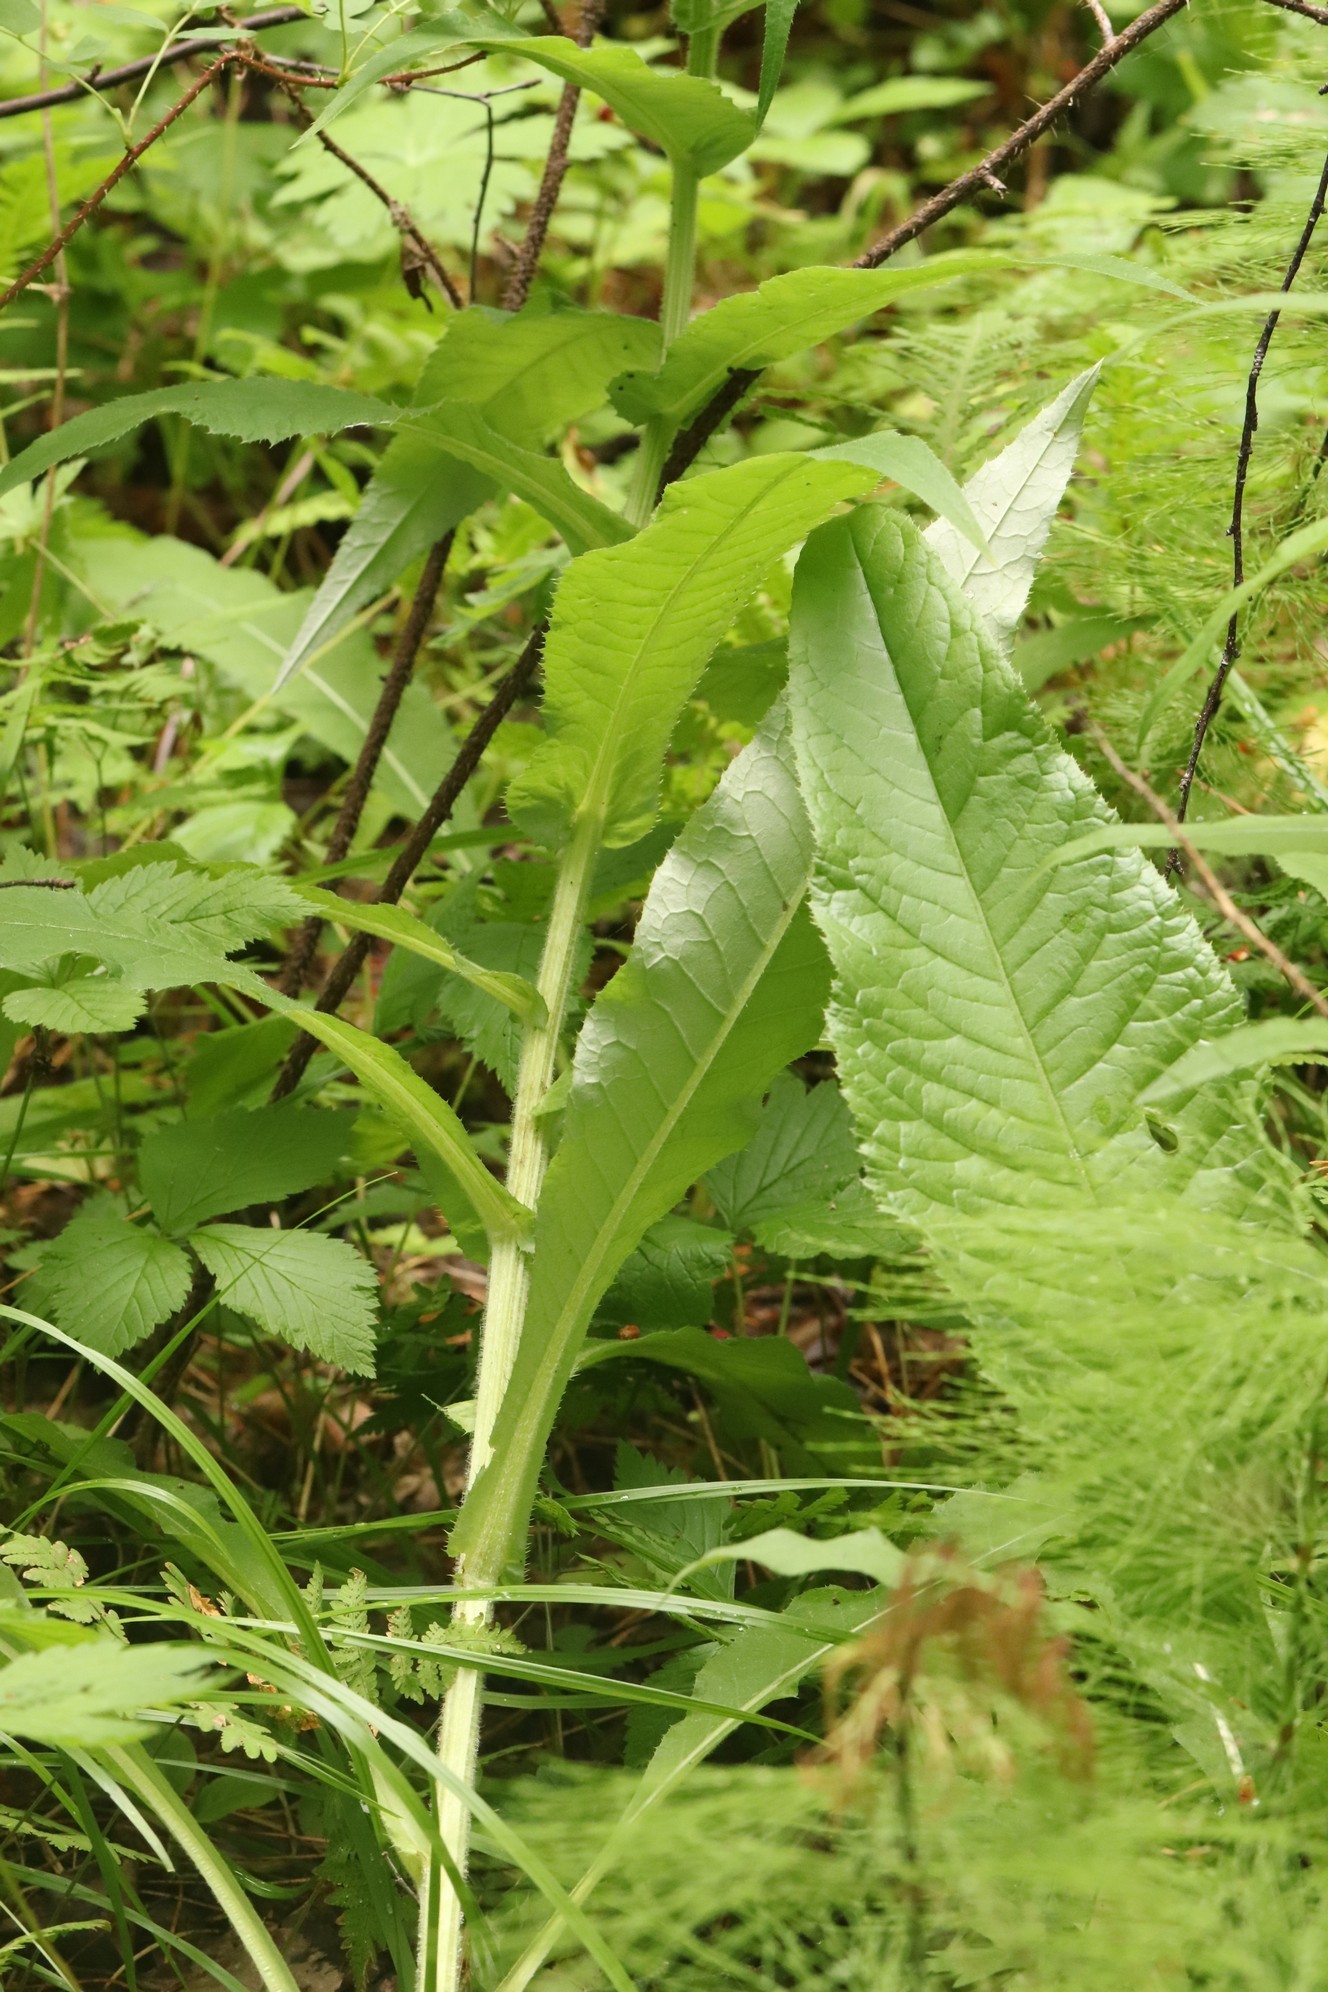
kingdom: Plantae
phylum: Tracheophyta
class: Magnoliopsida
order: Asterales
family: Asteraceae
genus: Cirsium
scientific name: Cirsium heterophyllum
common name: Melancholy thistle
